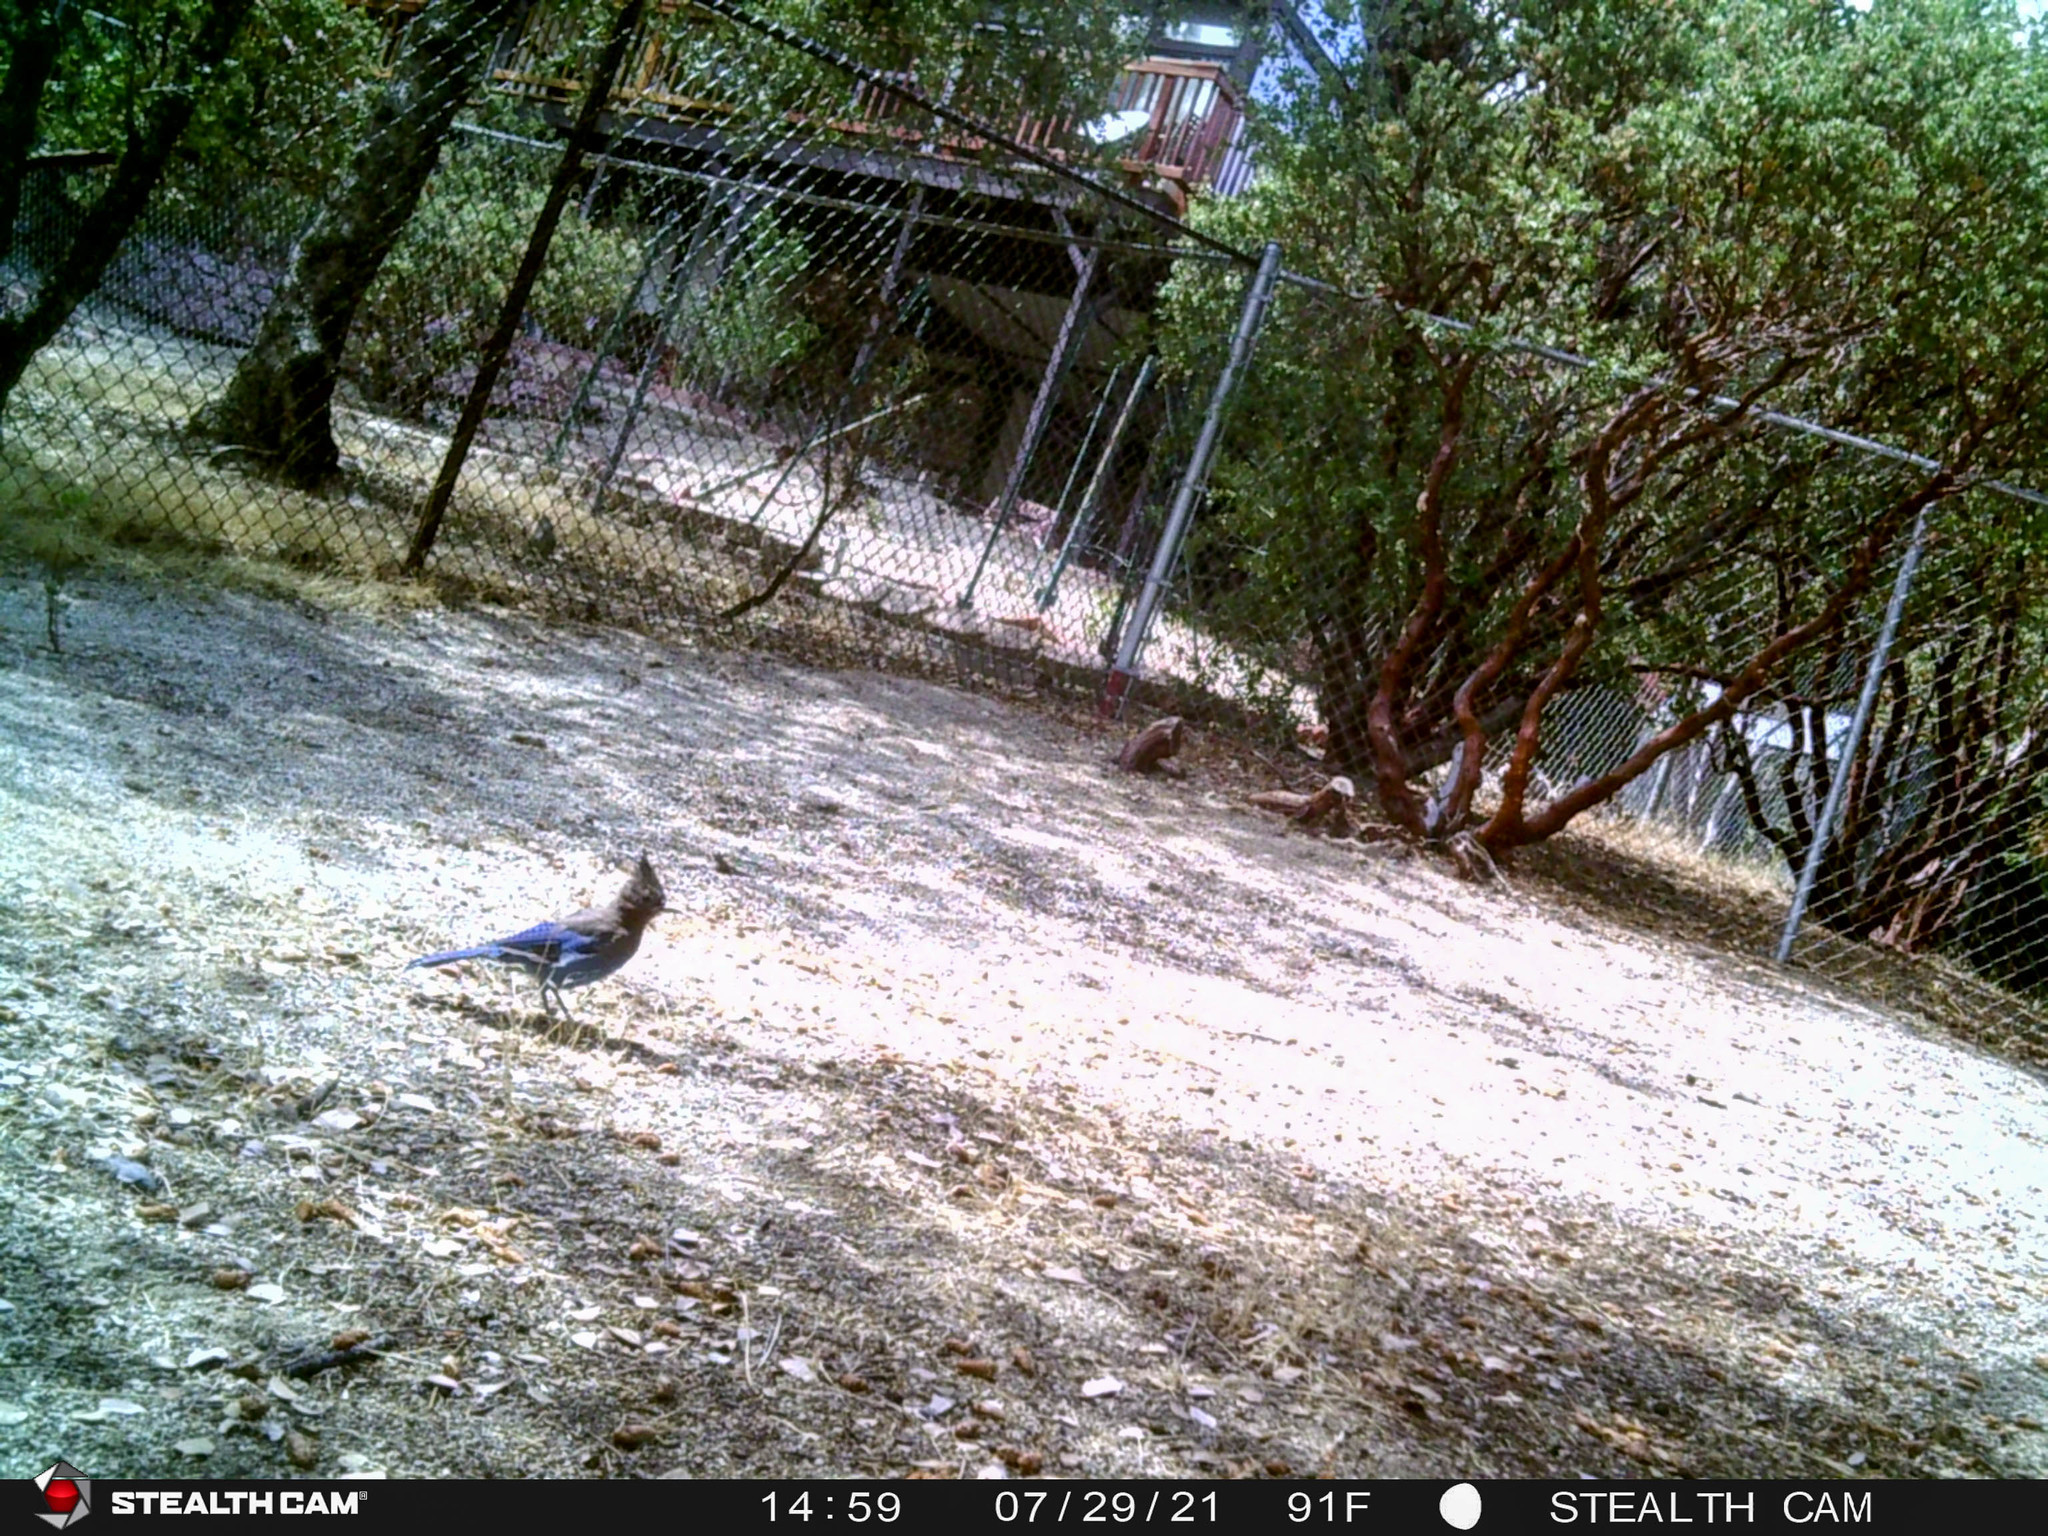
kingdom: Animalia
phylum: Chordata
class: Aves
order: Passeriformes
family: Corvidae
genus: Cyanocitta
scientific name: Cyanocitta stelleri
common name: Steller's jay
